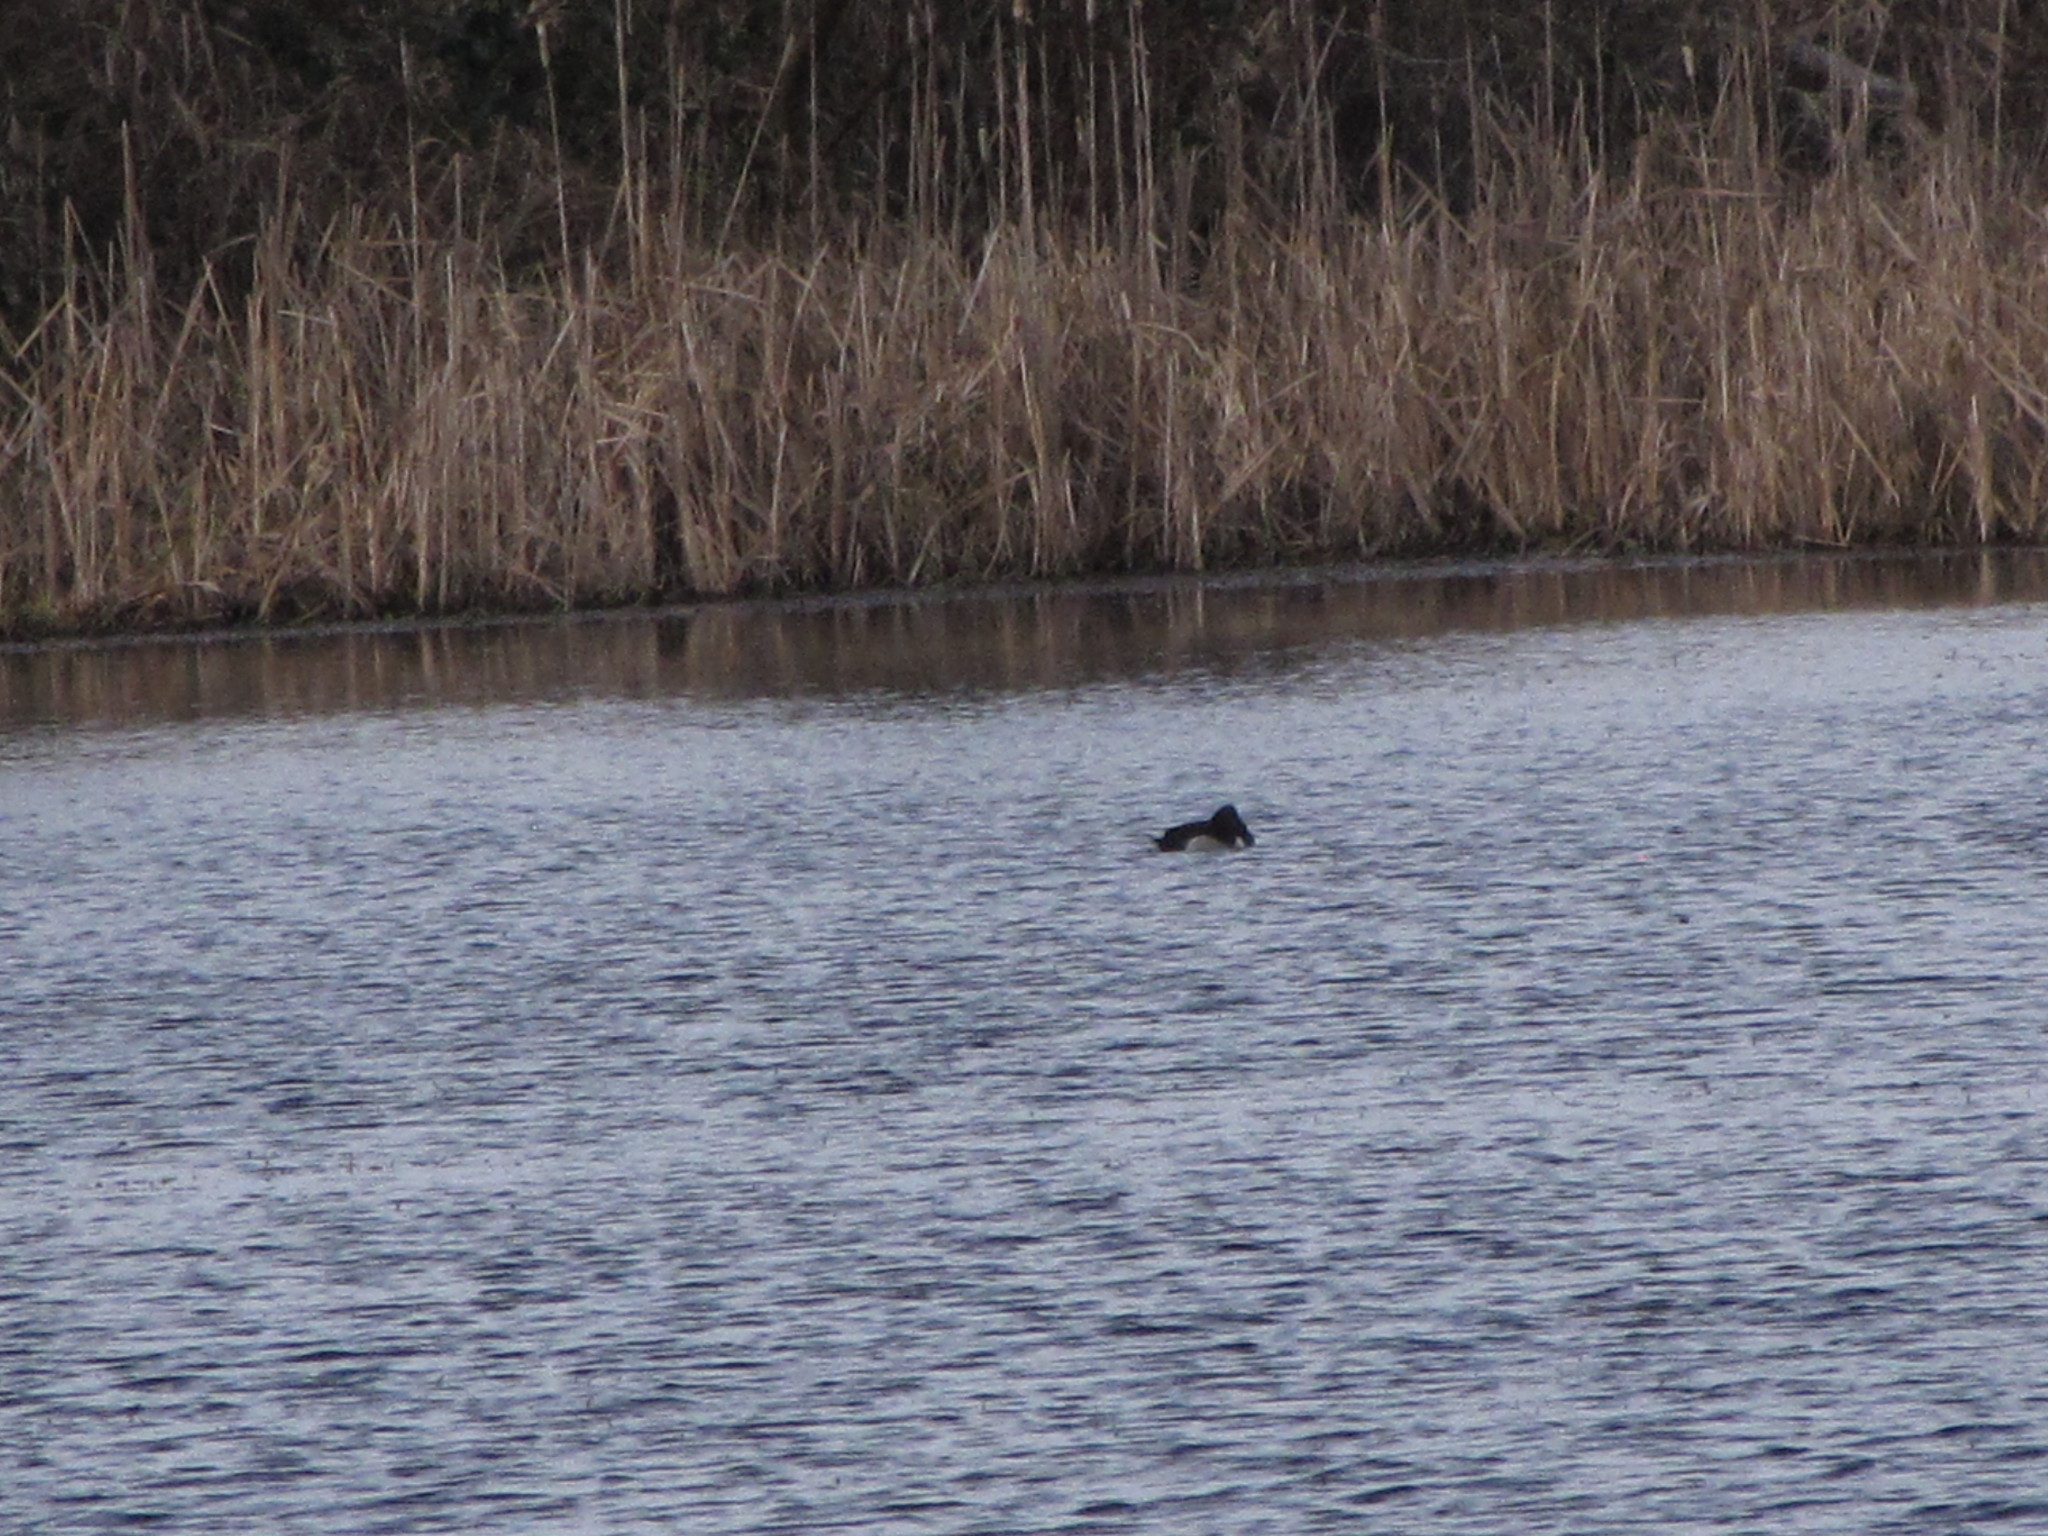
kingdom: Animalia
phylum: Chordata
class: Aves
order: Anseriformes
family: Anatidae
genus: Aythya
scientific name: Aythya collaris
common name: Ring-necked duck
